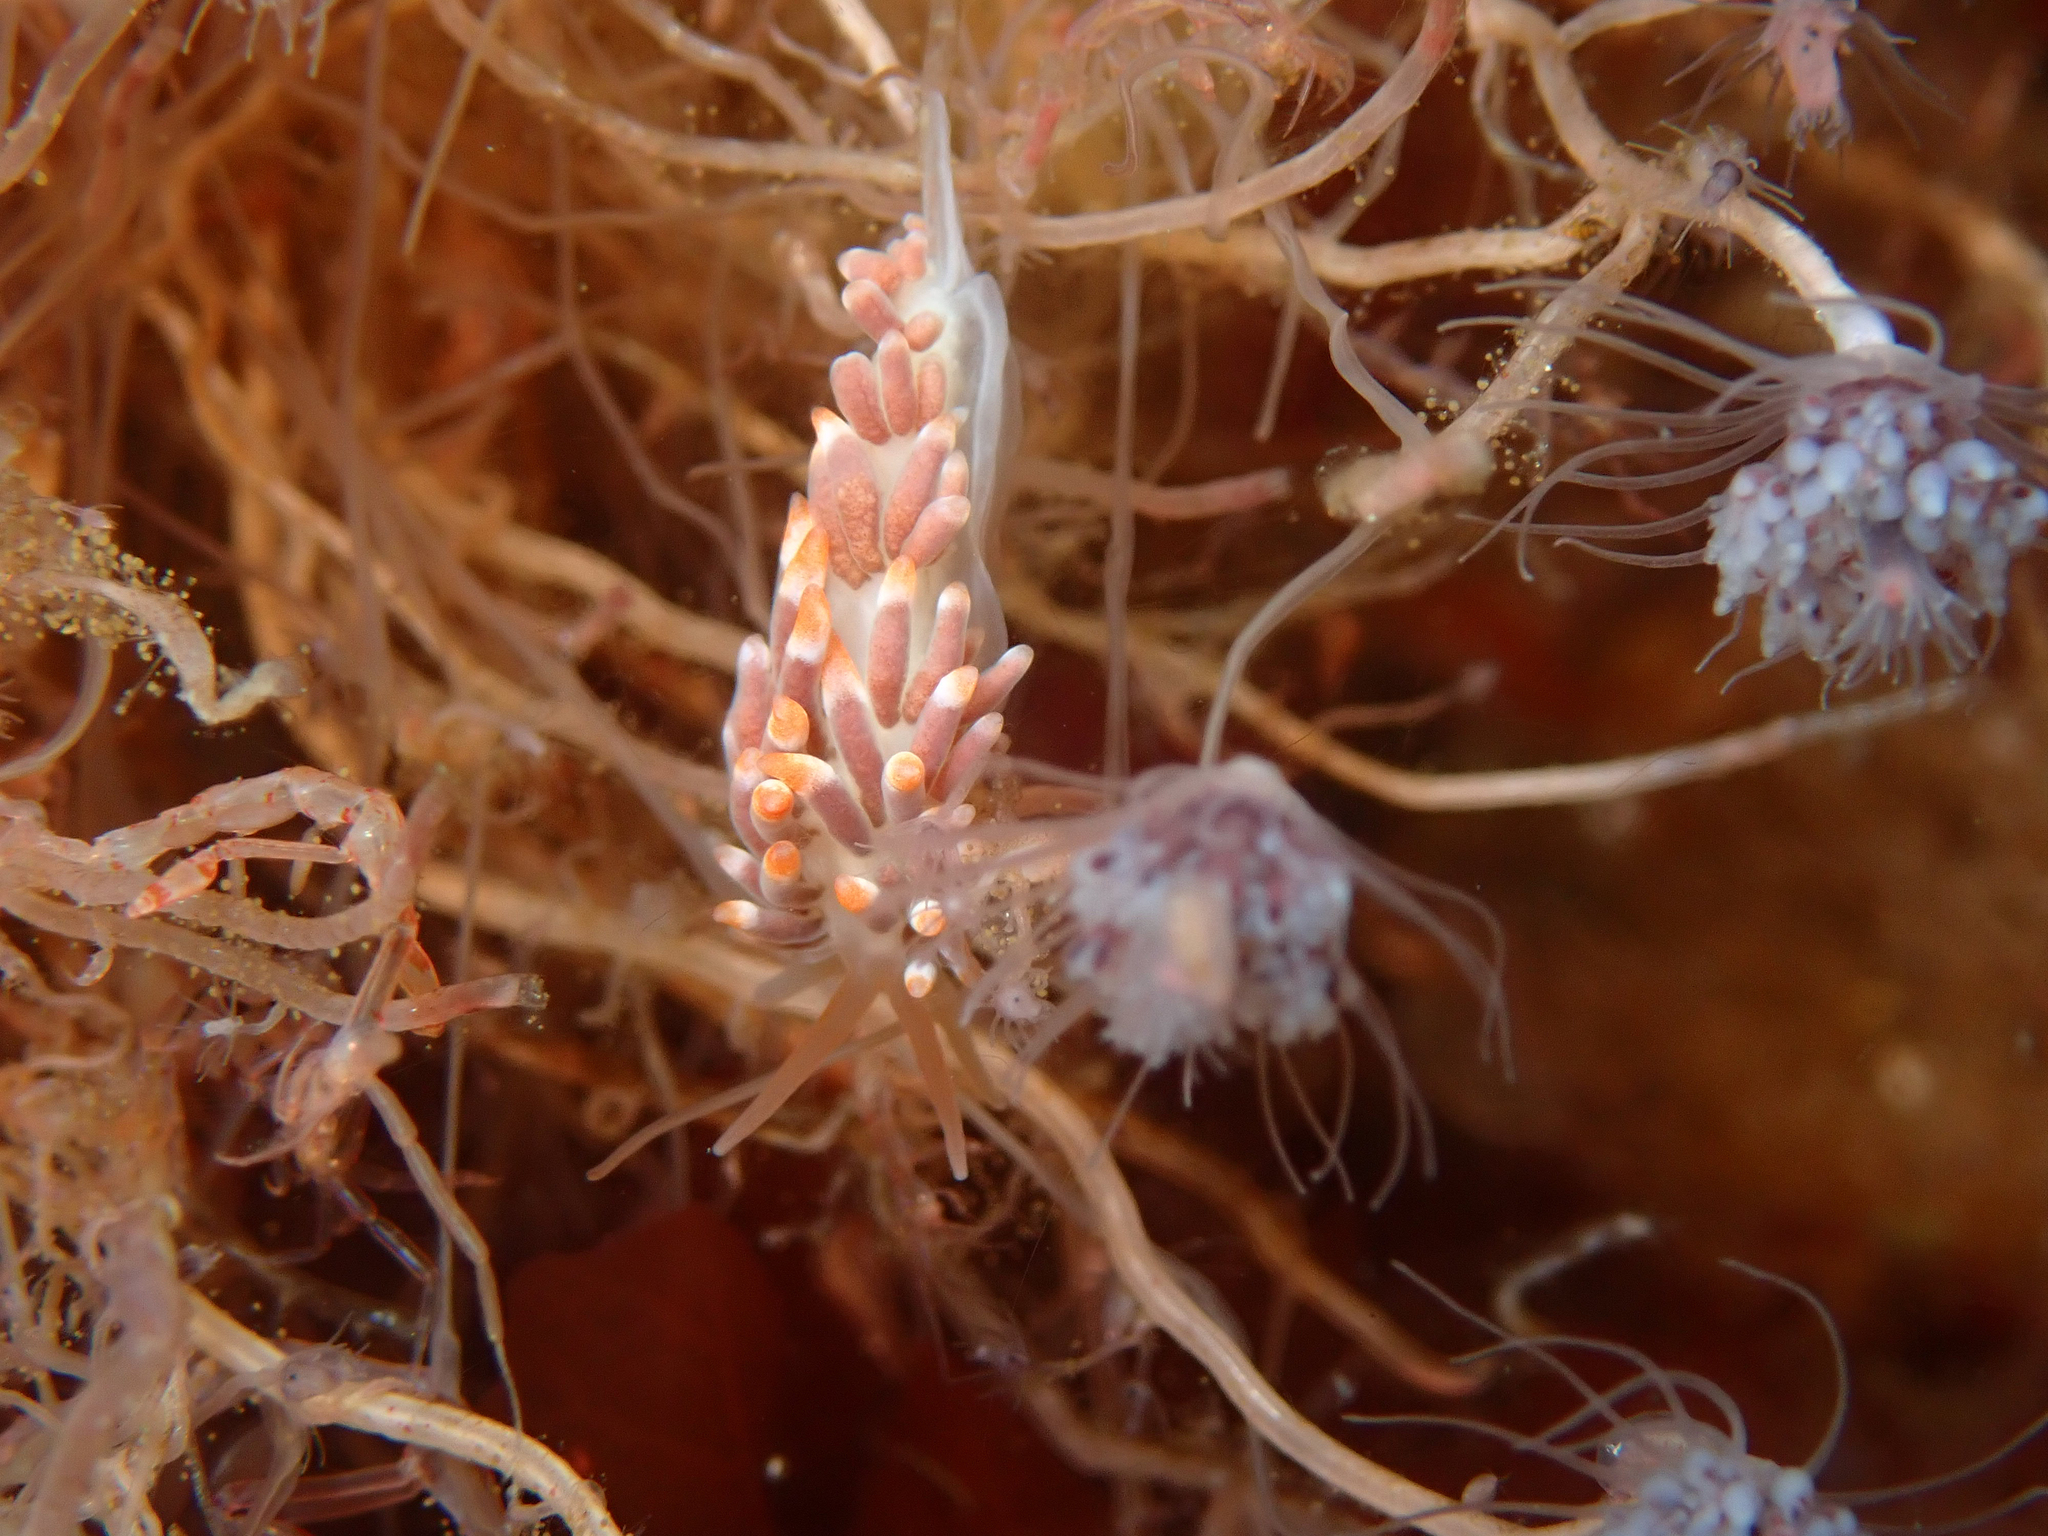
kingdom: Animalia
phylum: Mollusca
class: Gastropoda
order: Nudibranchia
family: Trinchesiidae
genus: Catriona
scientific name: Catriona aurantia
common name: Corange-tip cuthona
